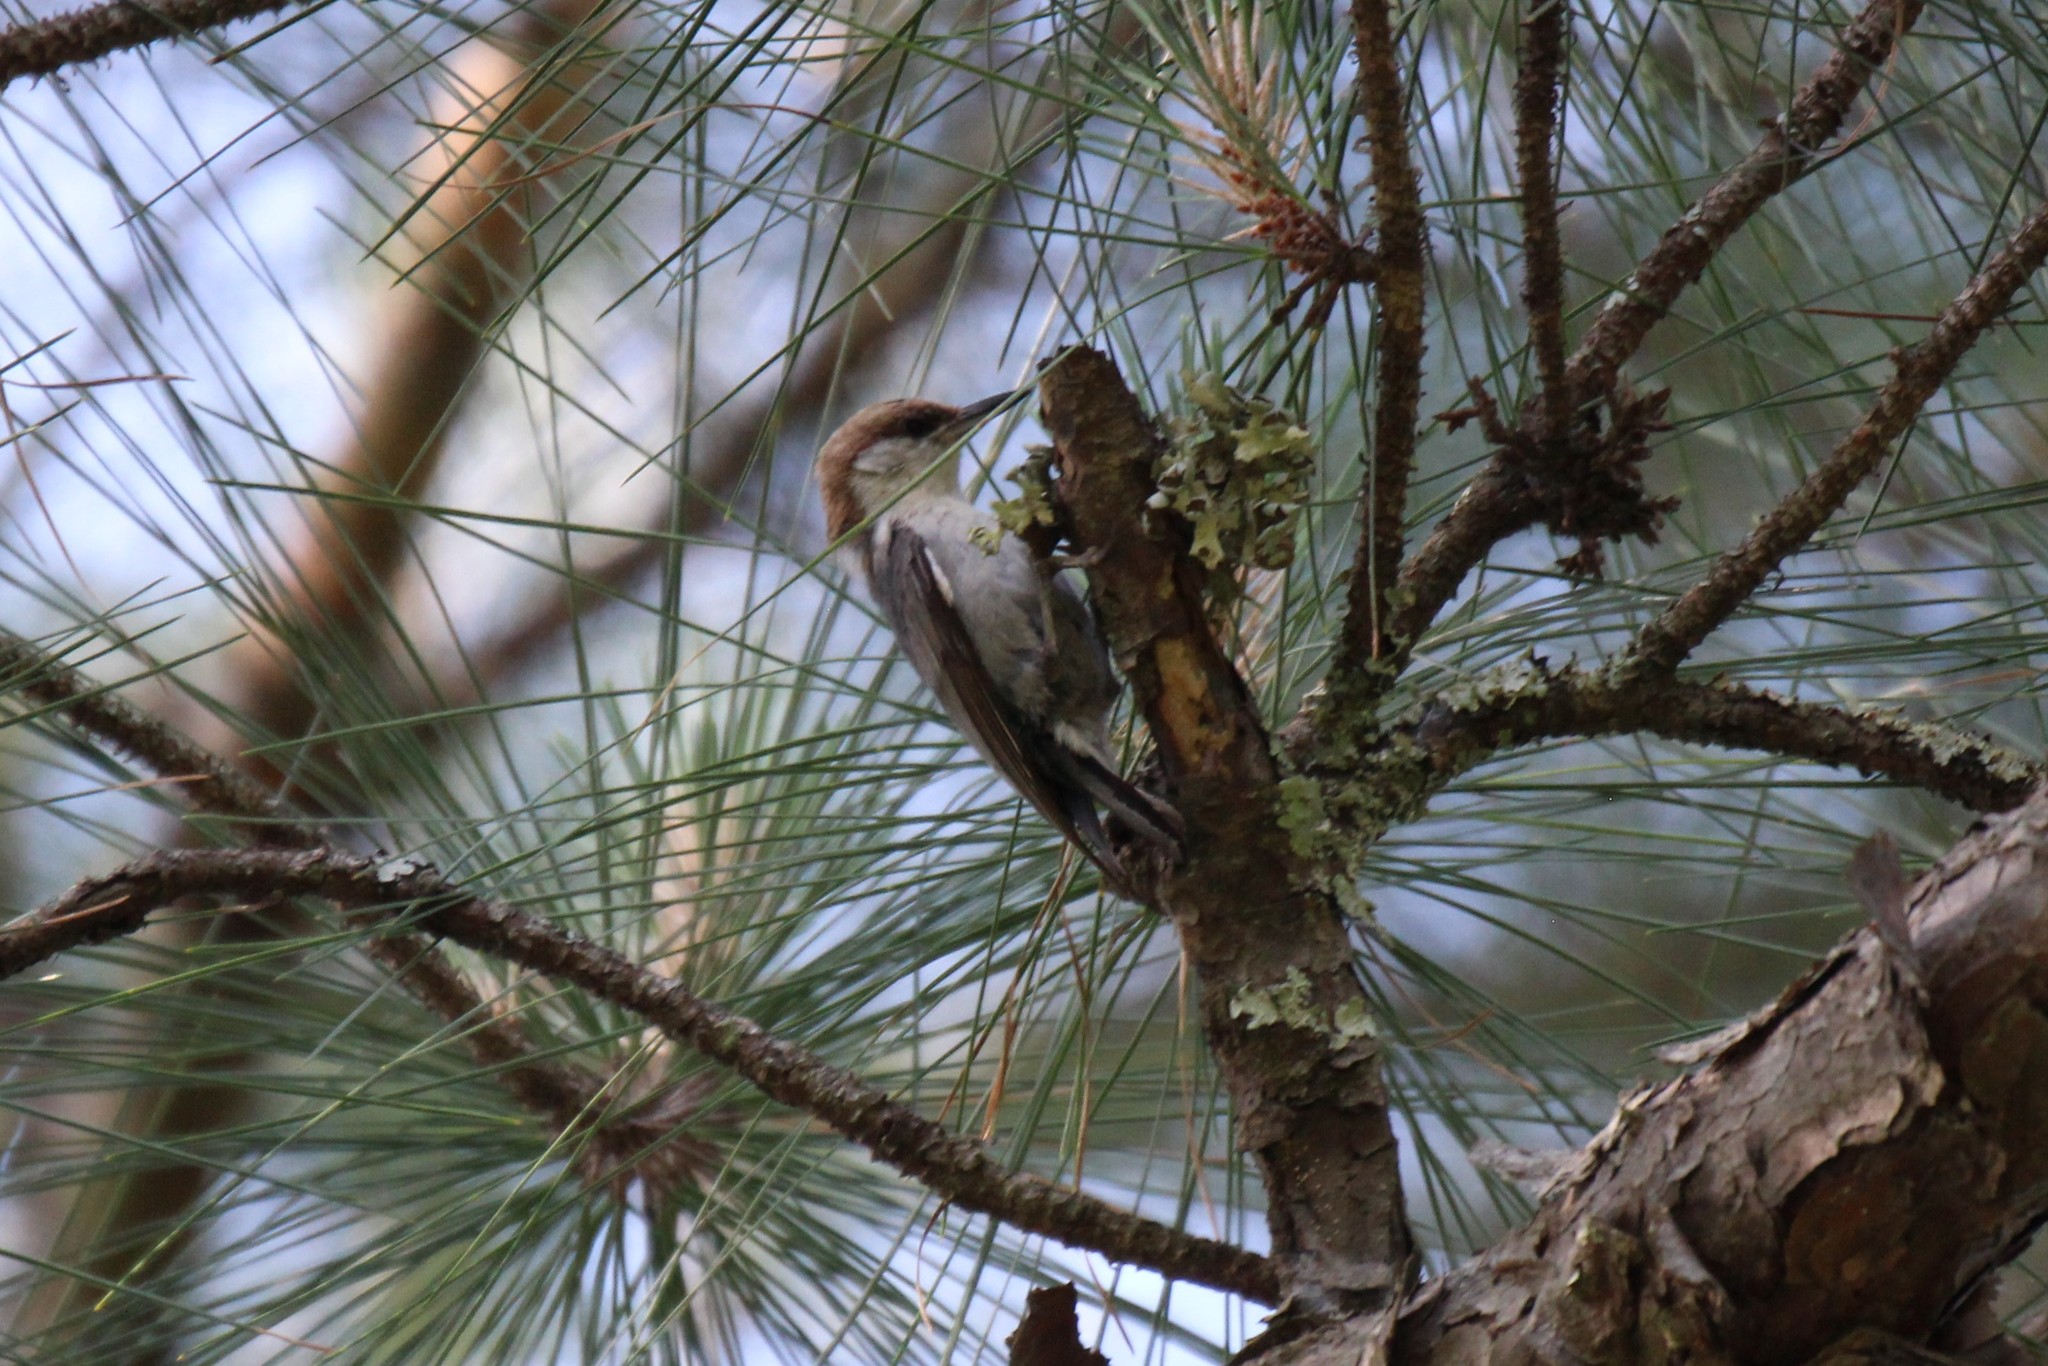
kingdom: Animalia
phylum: Chordata
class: Aves
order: Passeriformes
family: Sittidae
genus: Sitta
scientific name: Sitta pusilla
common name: Brown-headed nuthatch
